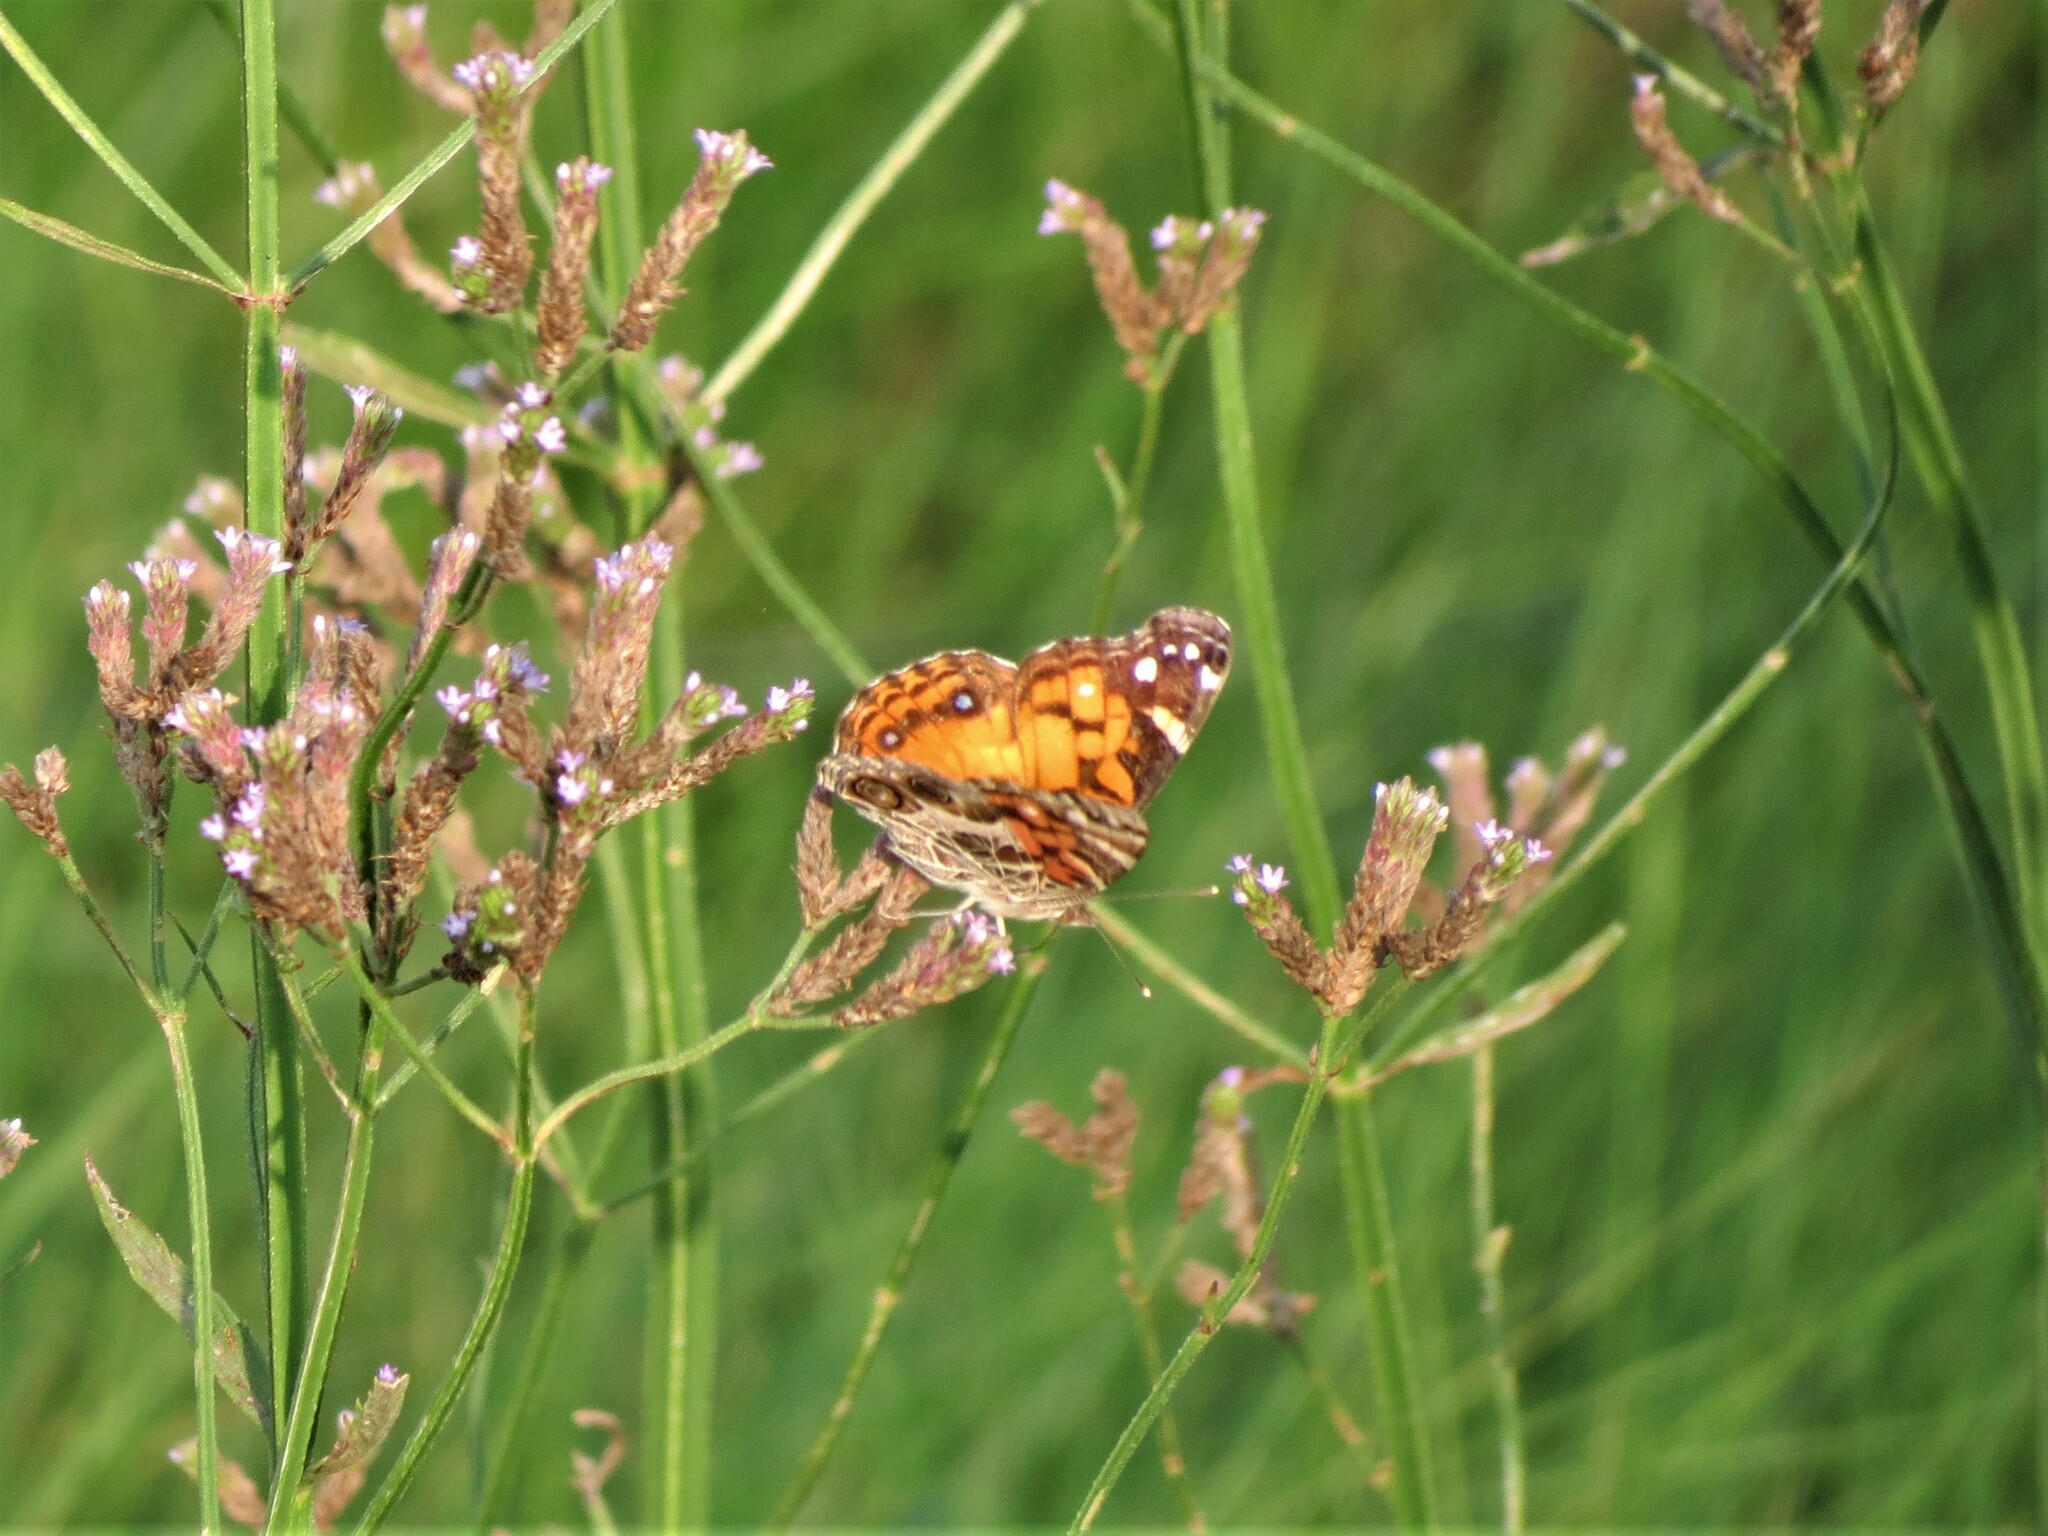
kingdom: Animalia
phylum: Arthropoda
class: Insecta
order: Lepidoptera
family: Nymphalidae
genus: Vanessa
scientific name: Vanessa virginiensis
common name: American lady
